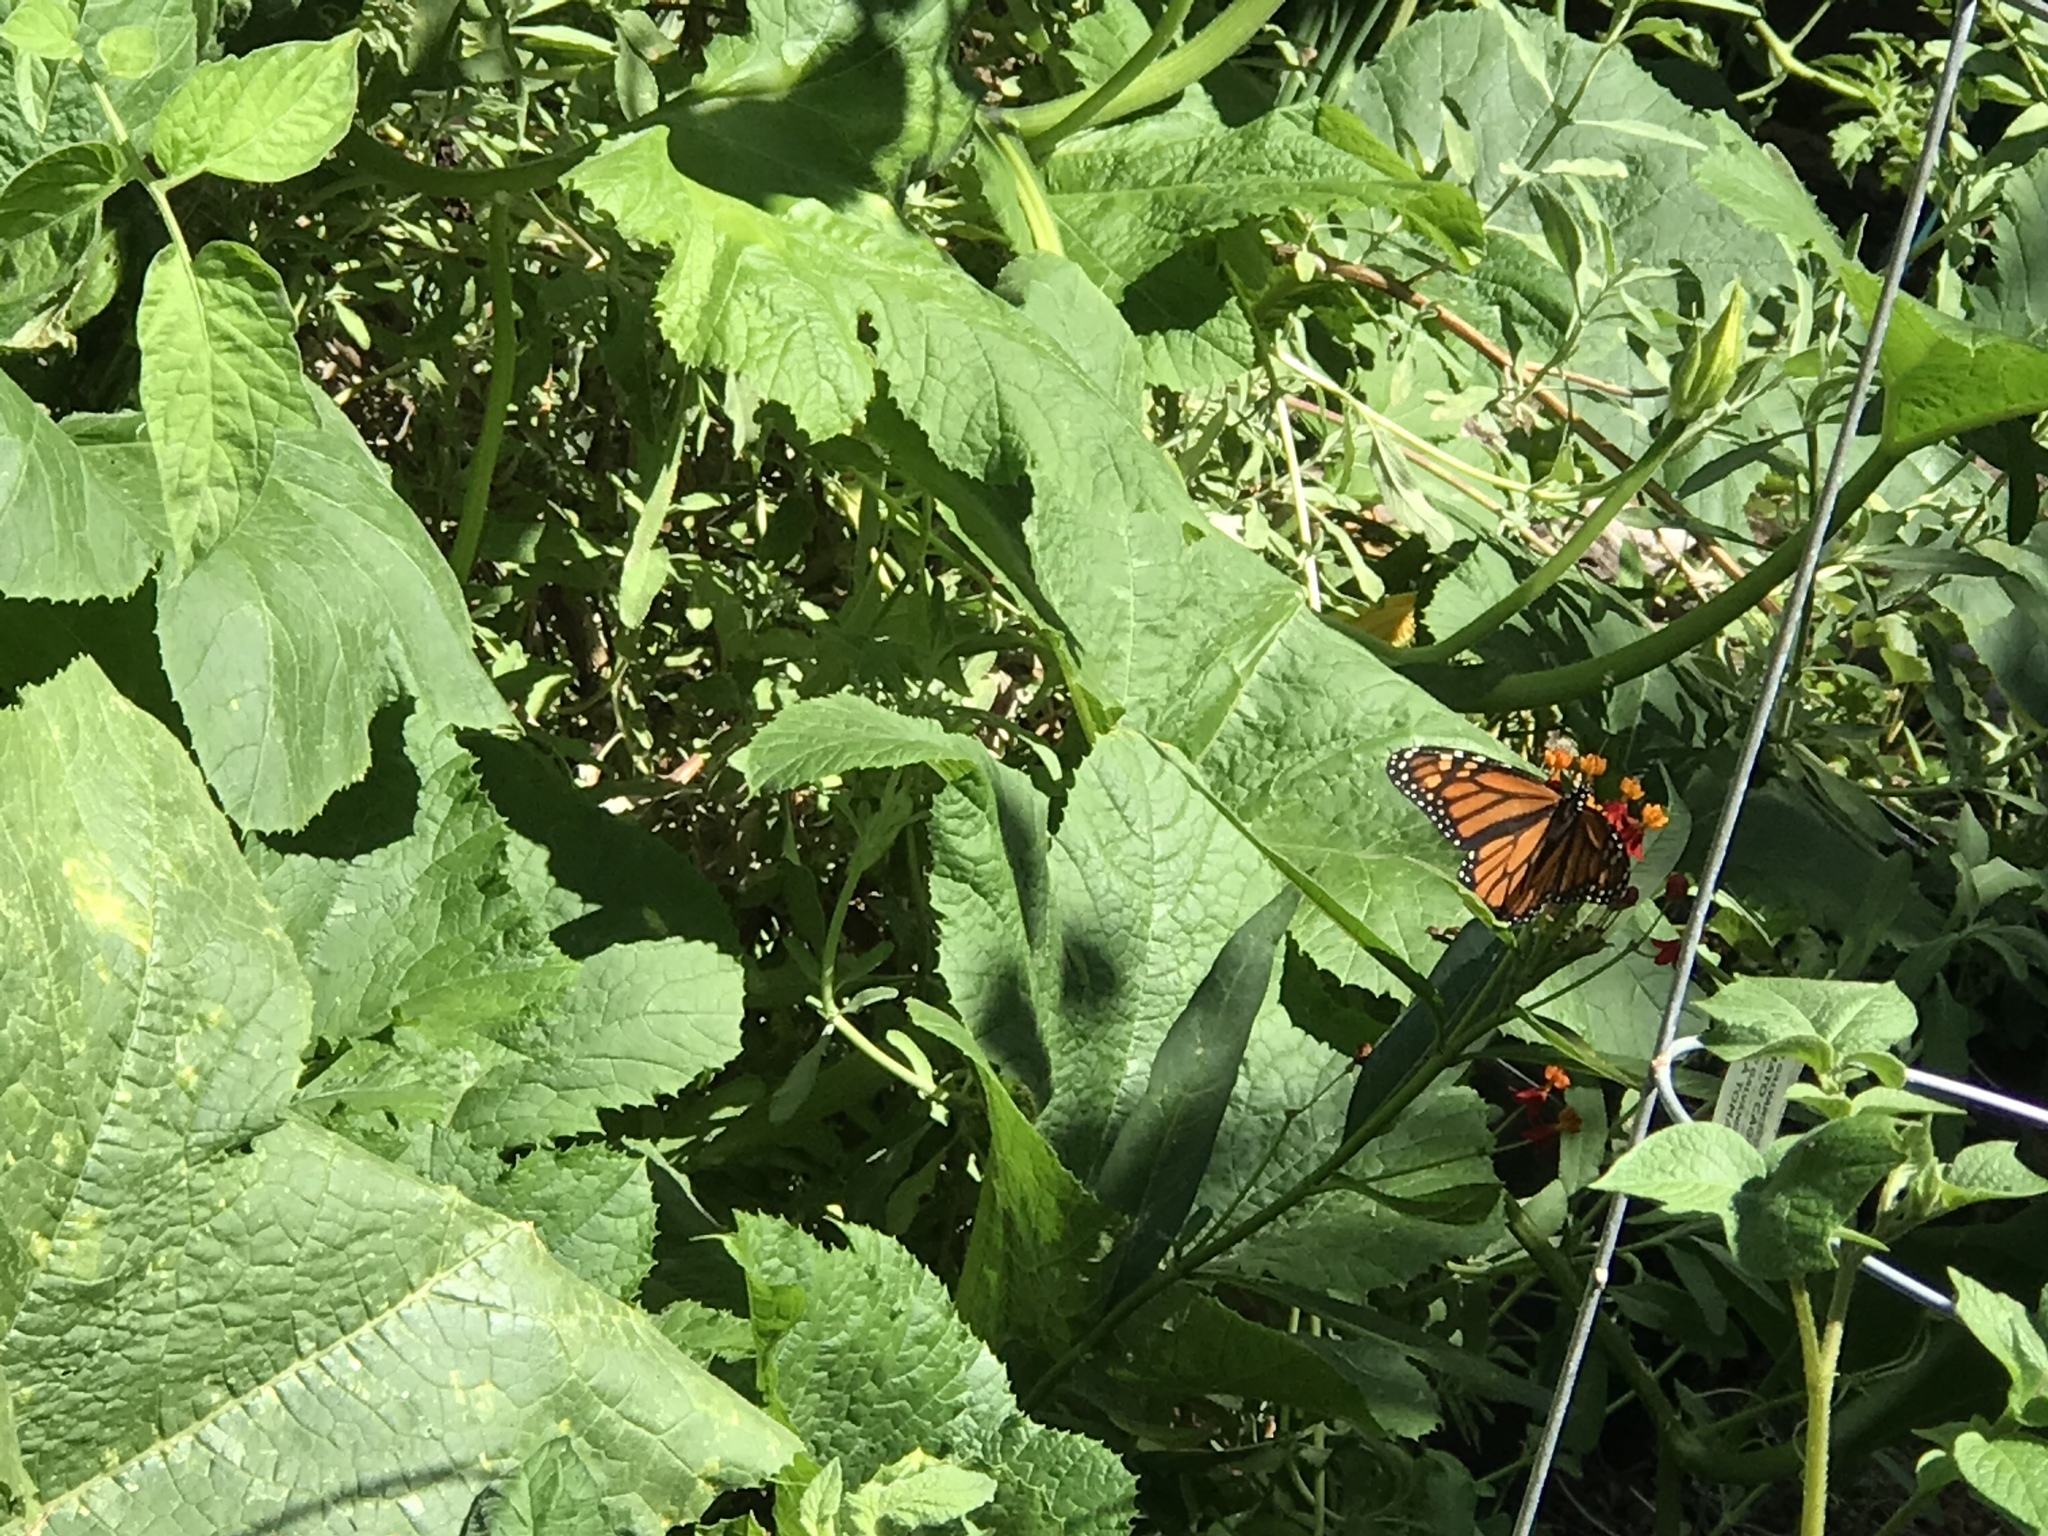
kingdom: Animalia
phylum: Arthropoda
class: Insecta
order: Lepidoptera
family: Nymphalidae
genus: Danaus
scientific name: Danaus plexippus
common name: Monarch
